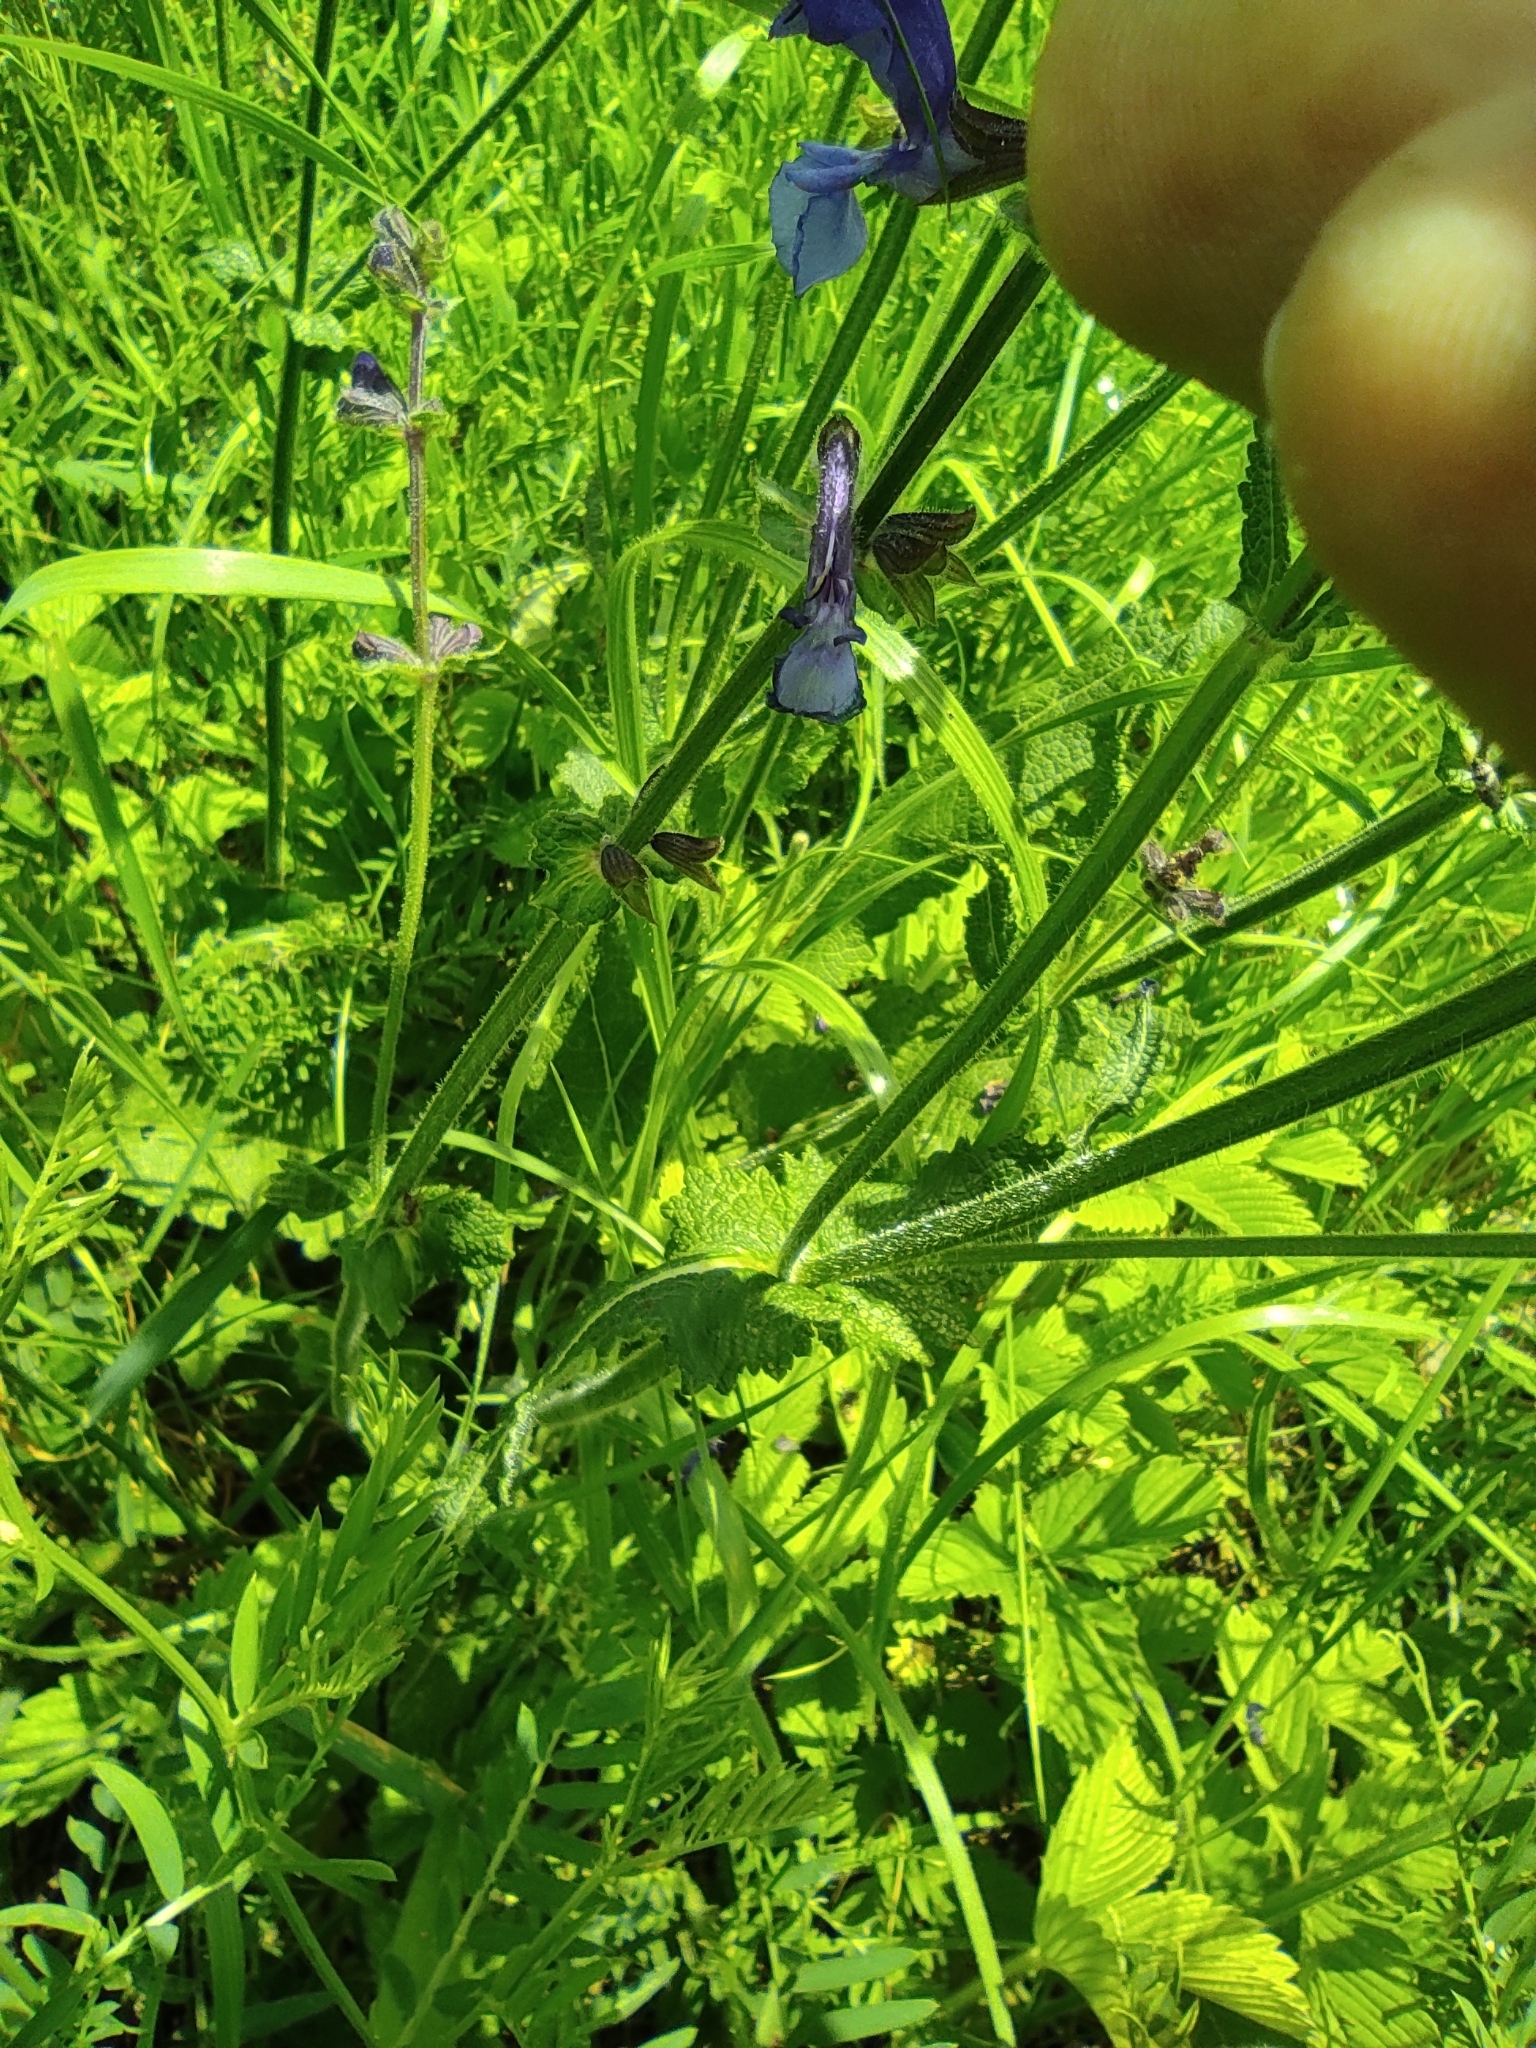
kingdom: Plantae
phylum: Tracheophyta
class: Magnoliopsida
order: Lamiales
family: Lamiaceae
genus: Salvia
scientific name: Salvia pratensis
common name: Meadow sage
